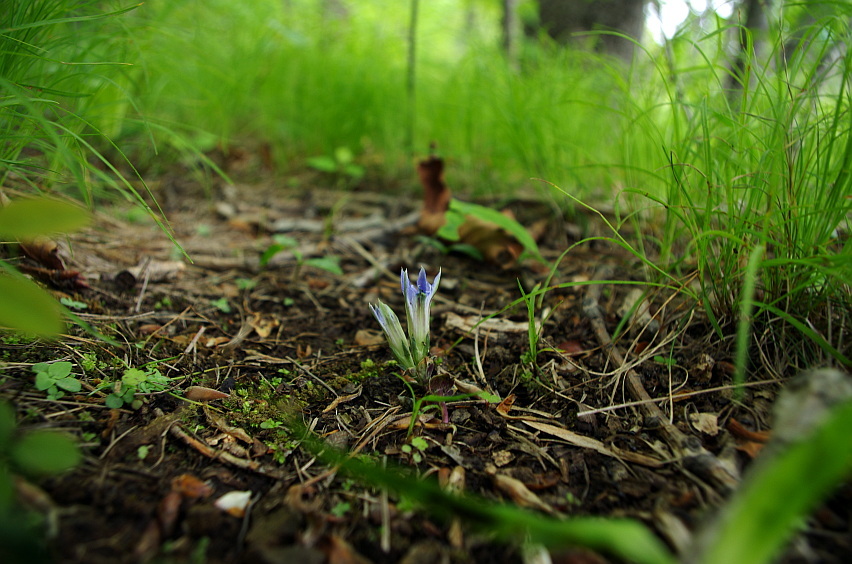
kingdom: Plantae
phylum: Tracheophyta
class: Magnoliopsida
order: Gentianales
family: Gentianaceae
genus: Gentiana
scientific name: Gentiana zollingeri
